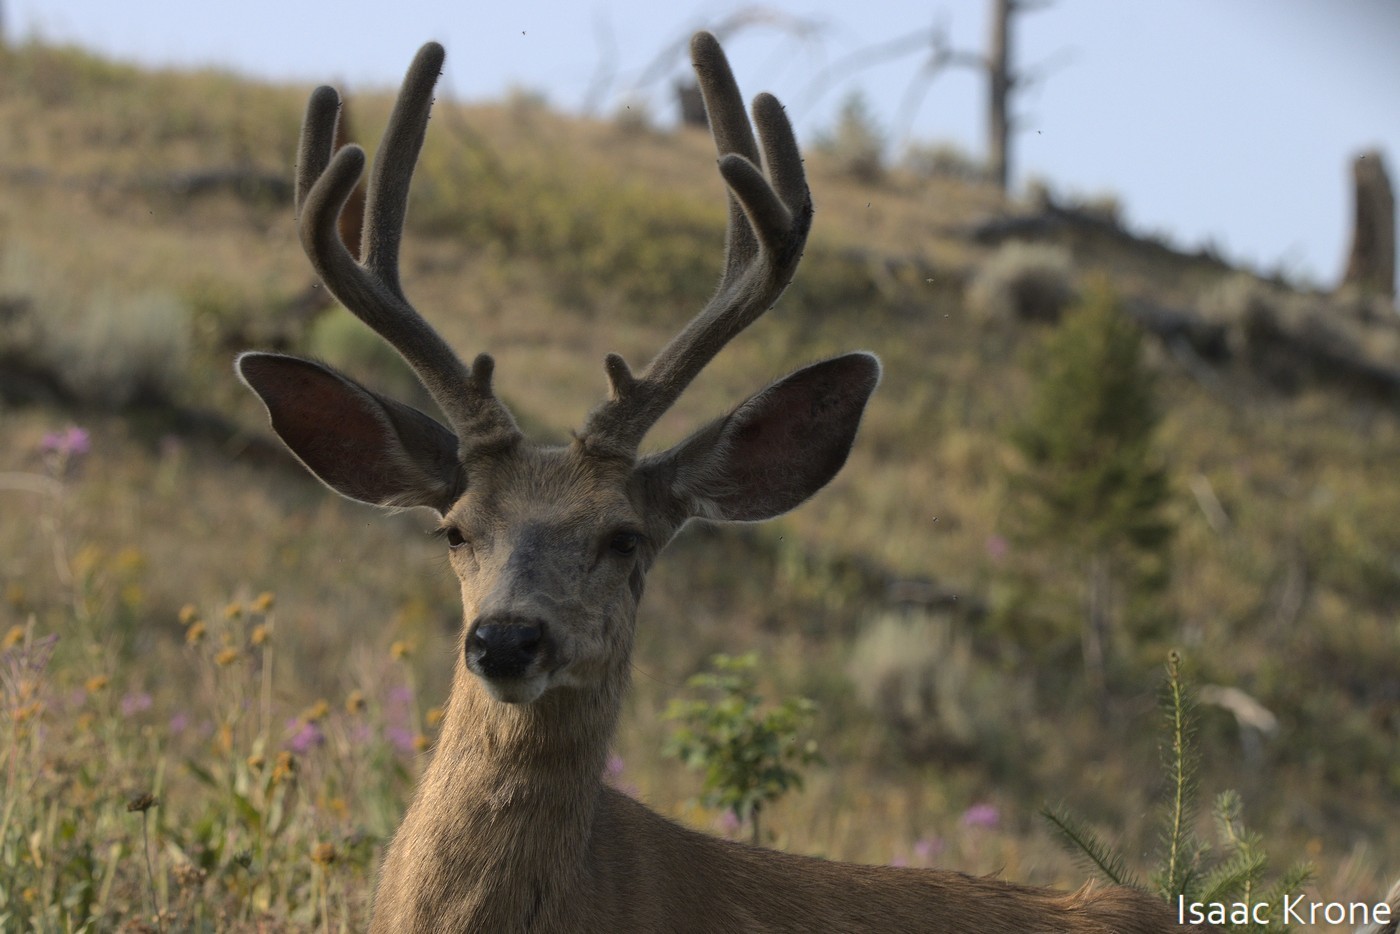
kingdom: Animalia
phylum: Chordata
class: Mammalia
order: Artiodactyla
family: Cervidae
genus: Odocoileus
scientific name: Odocoileus hemionus
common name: Mule deer
